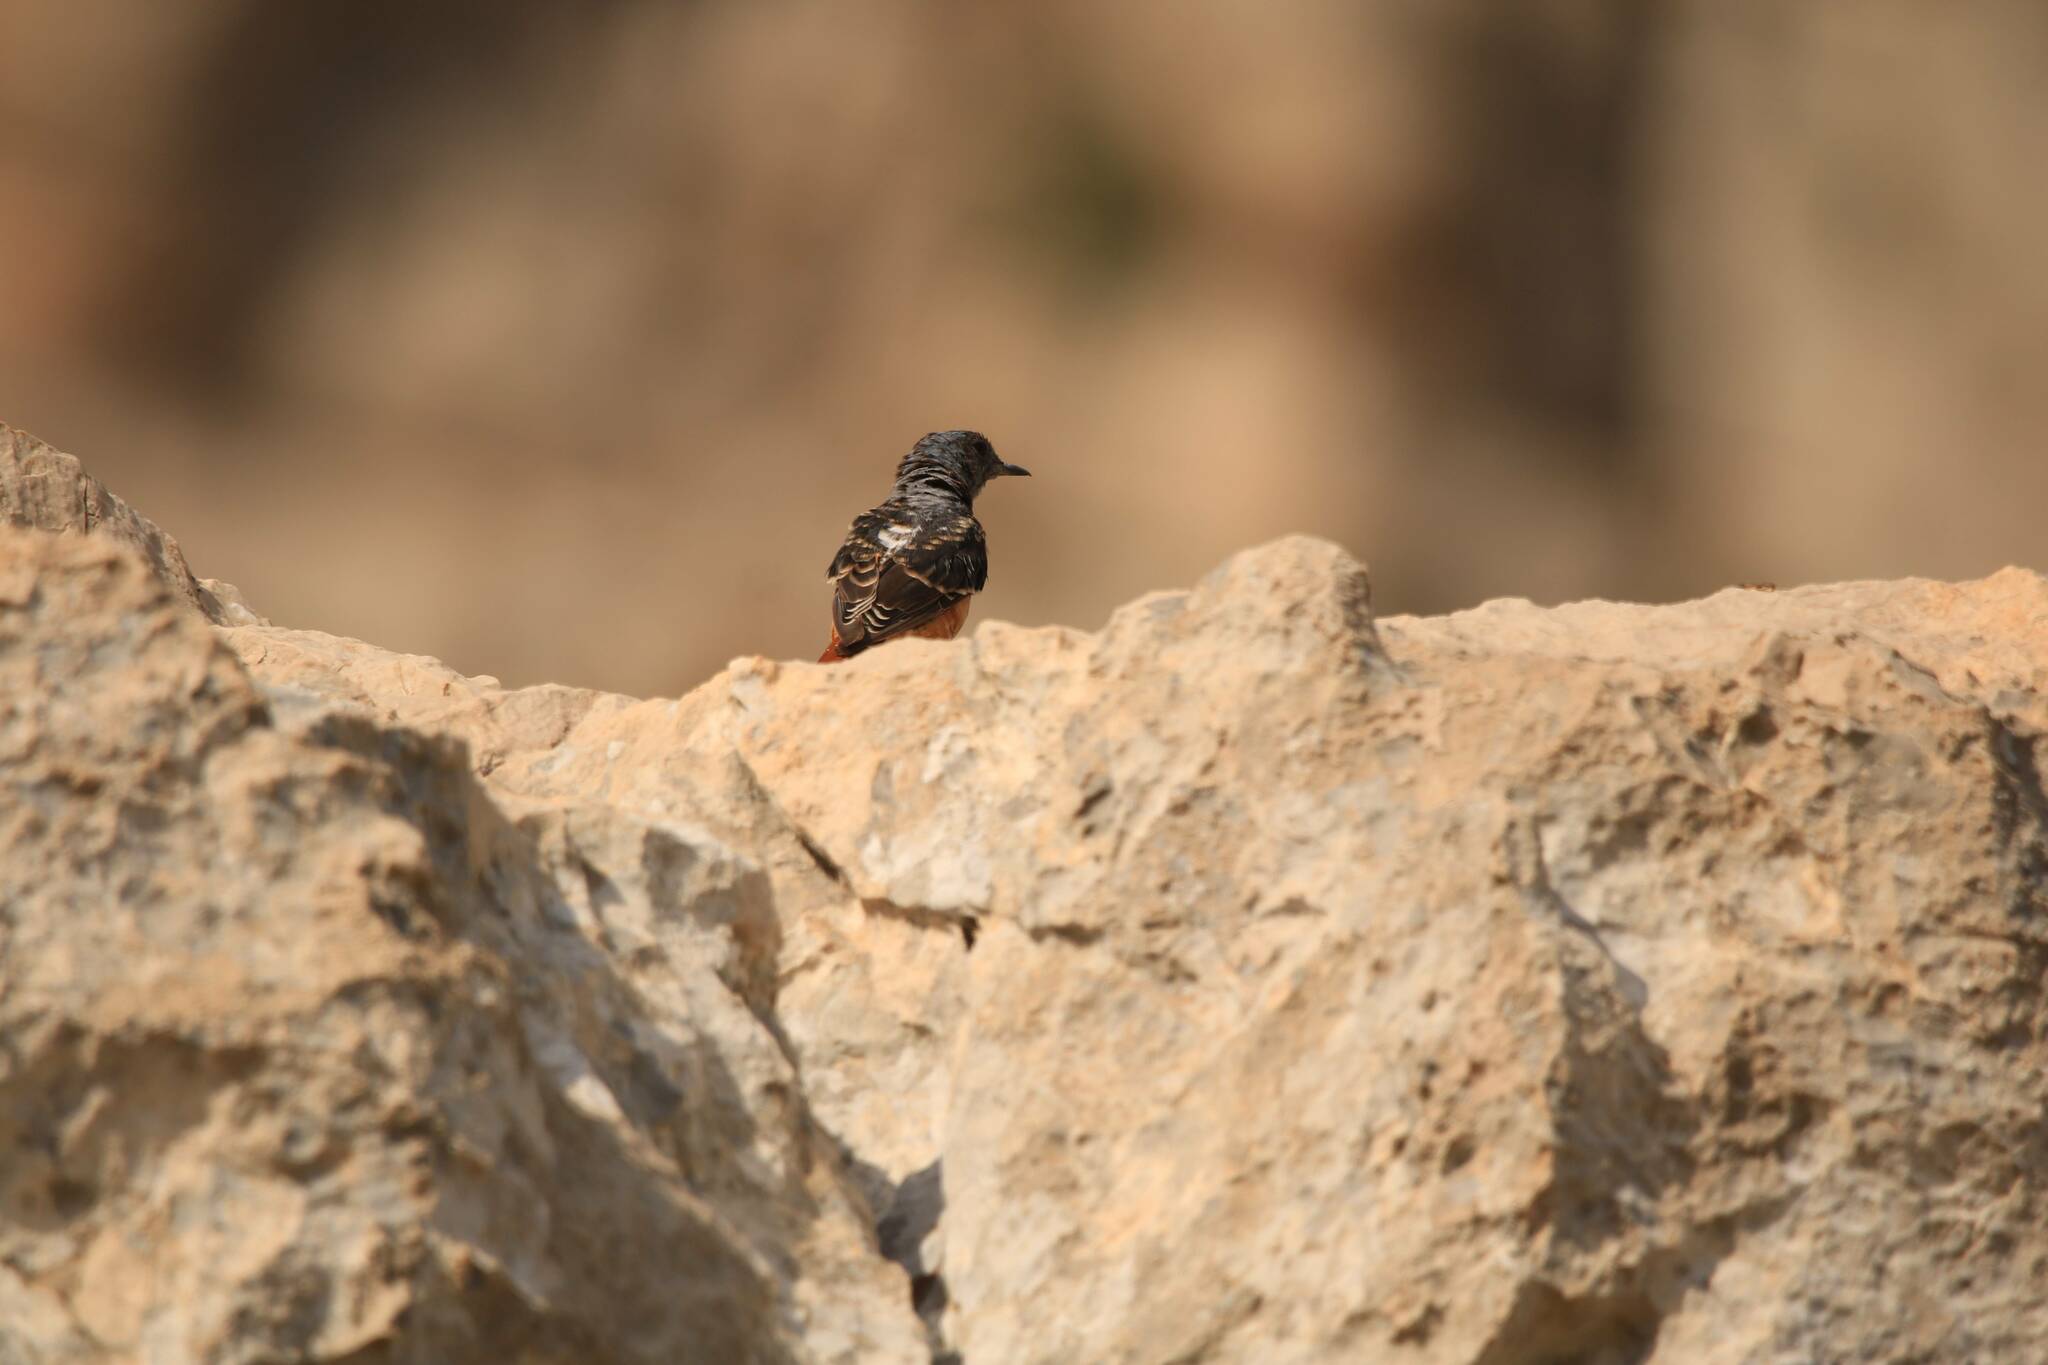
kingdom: Animalia
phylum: Chordata
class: Aves
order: Passeriformes
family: Muscicapidae
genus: Monticola
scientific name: Monticola saxatilis
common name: Rufous-tailed rock thrush
